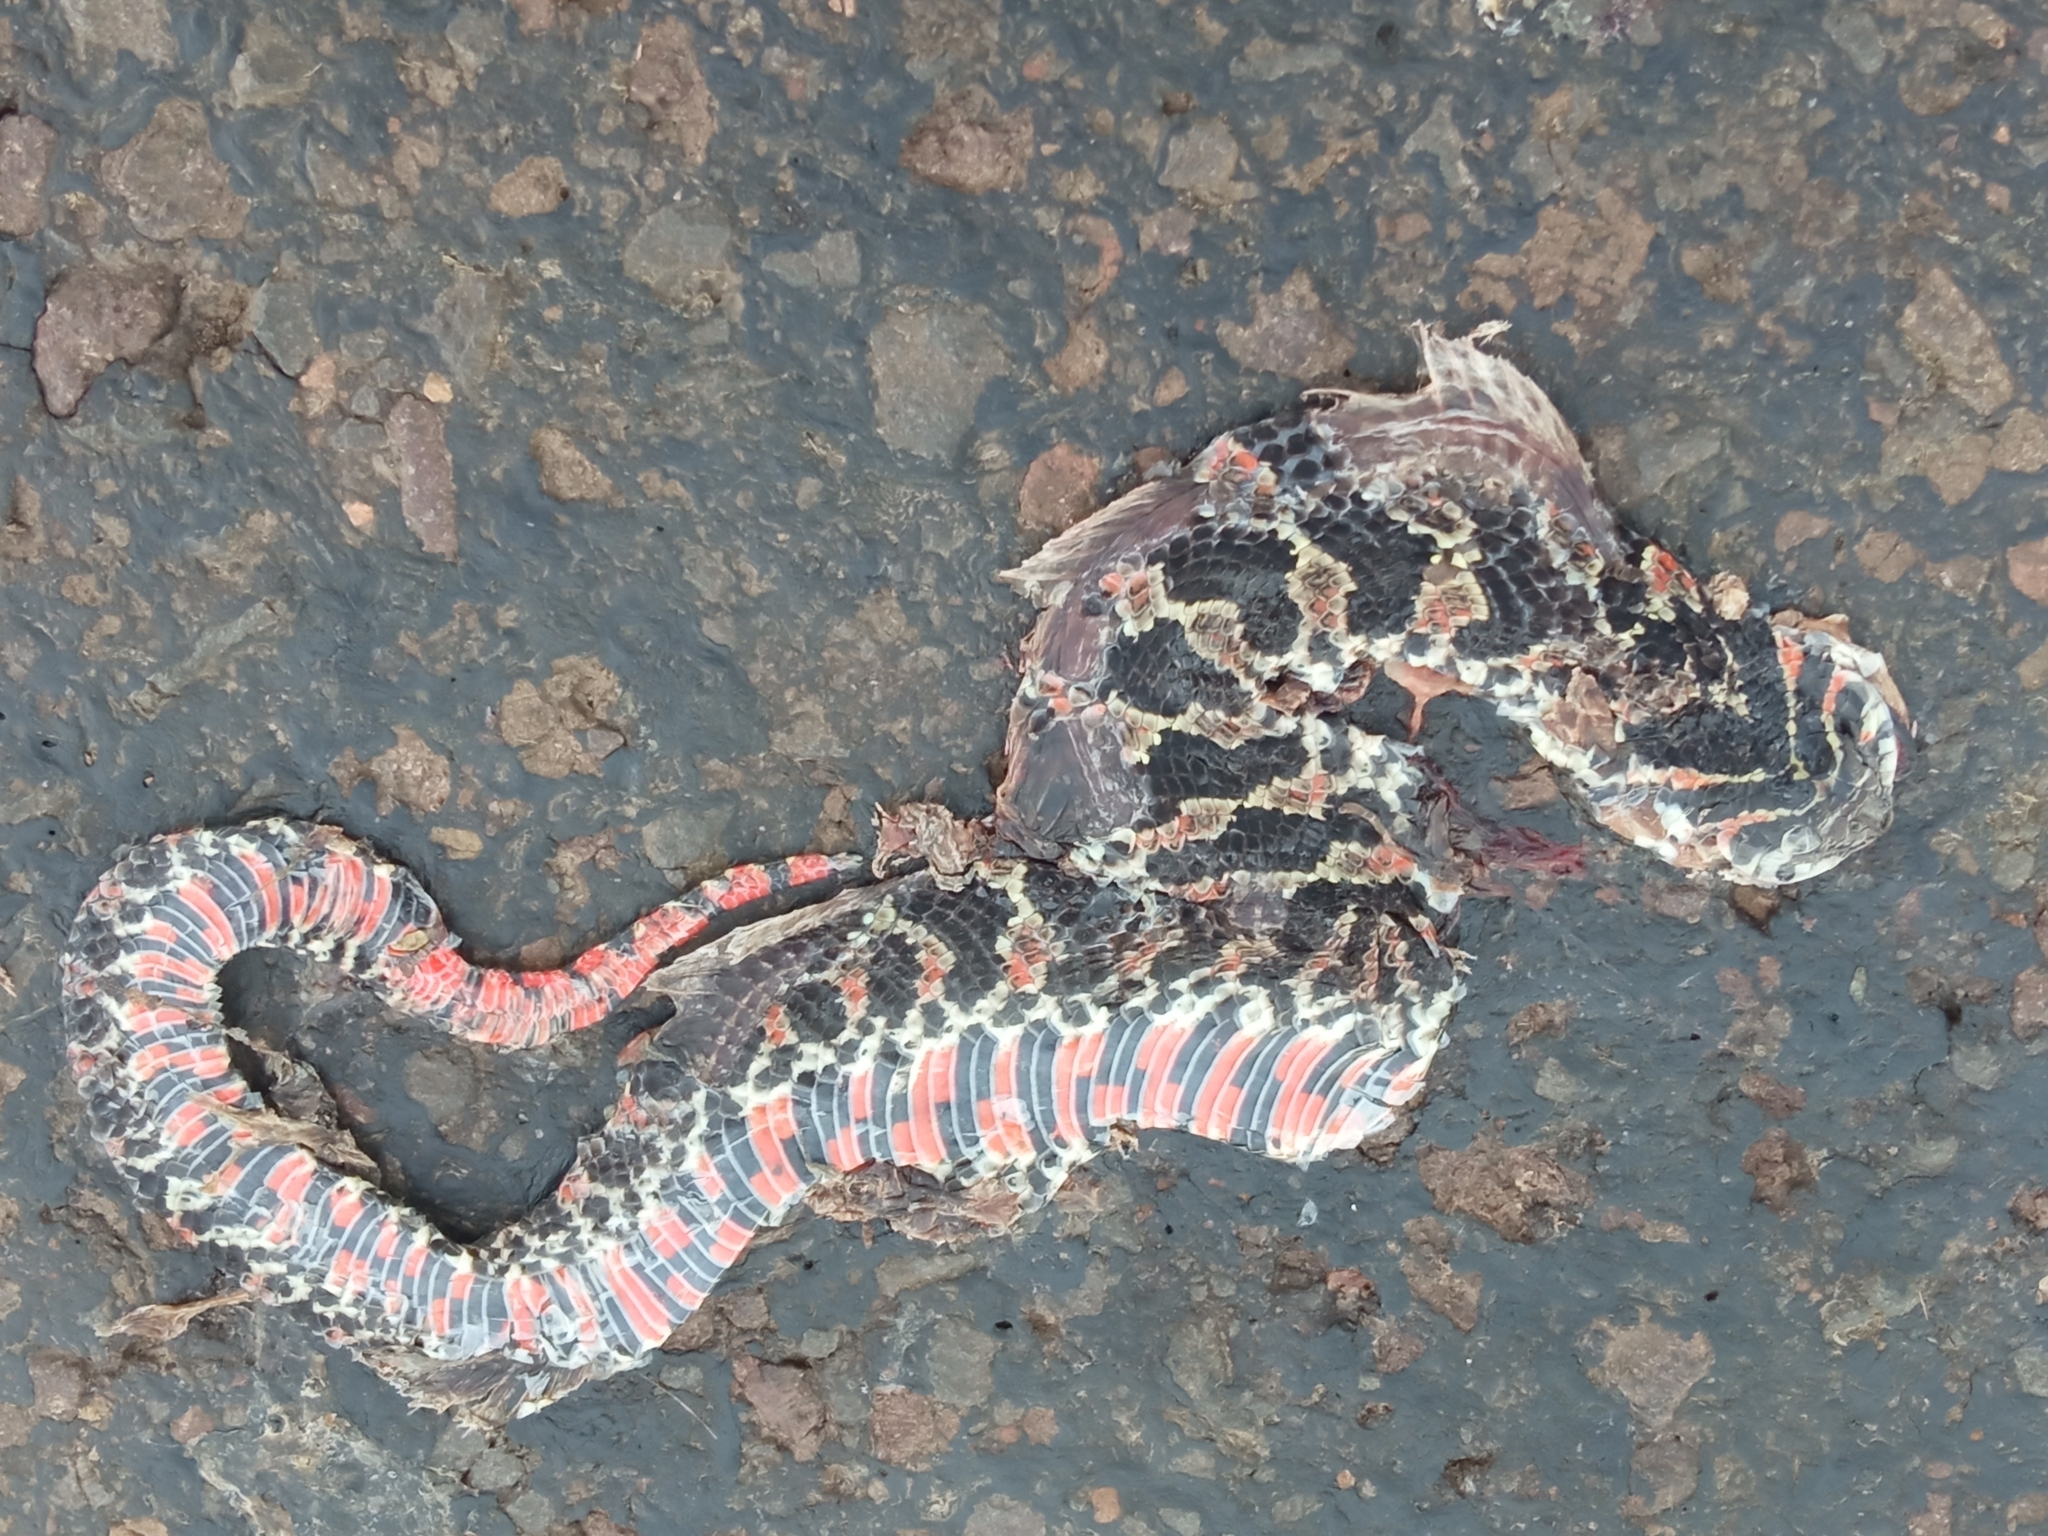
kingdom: Animalia
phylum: Chordata
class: Squamata
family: Colubridae
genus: Xenodon
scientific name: Xenodon dorbignyi
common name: South american hognose snake
